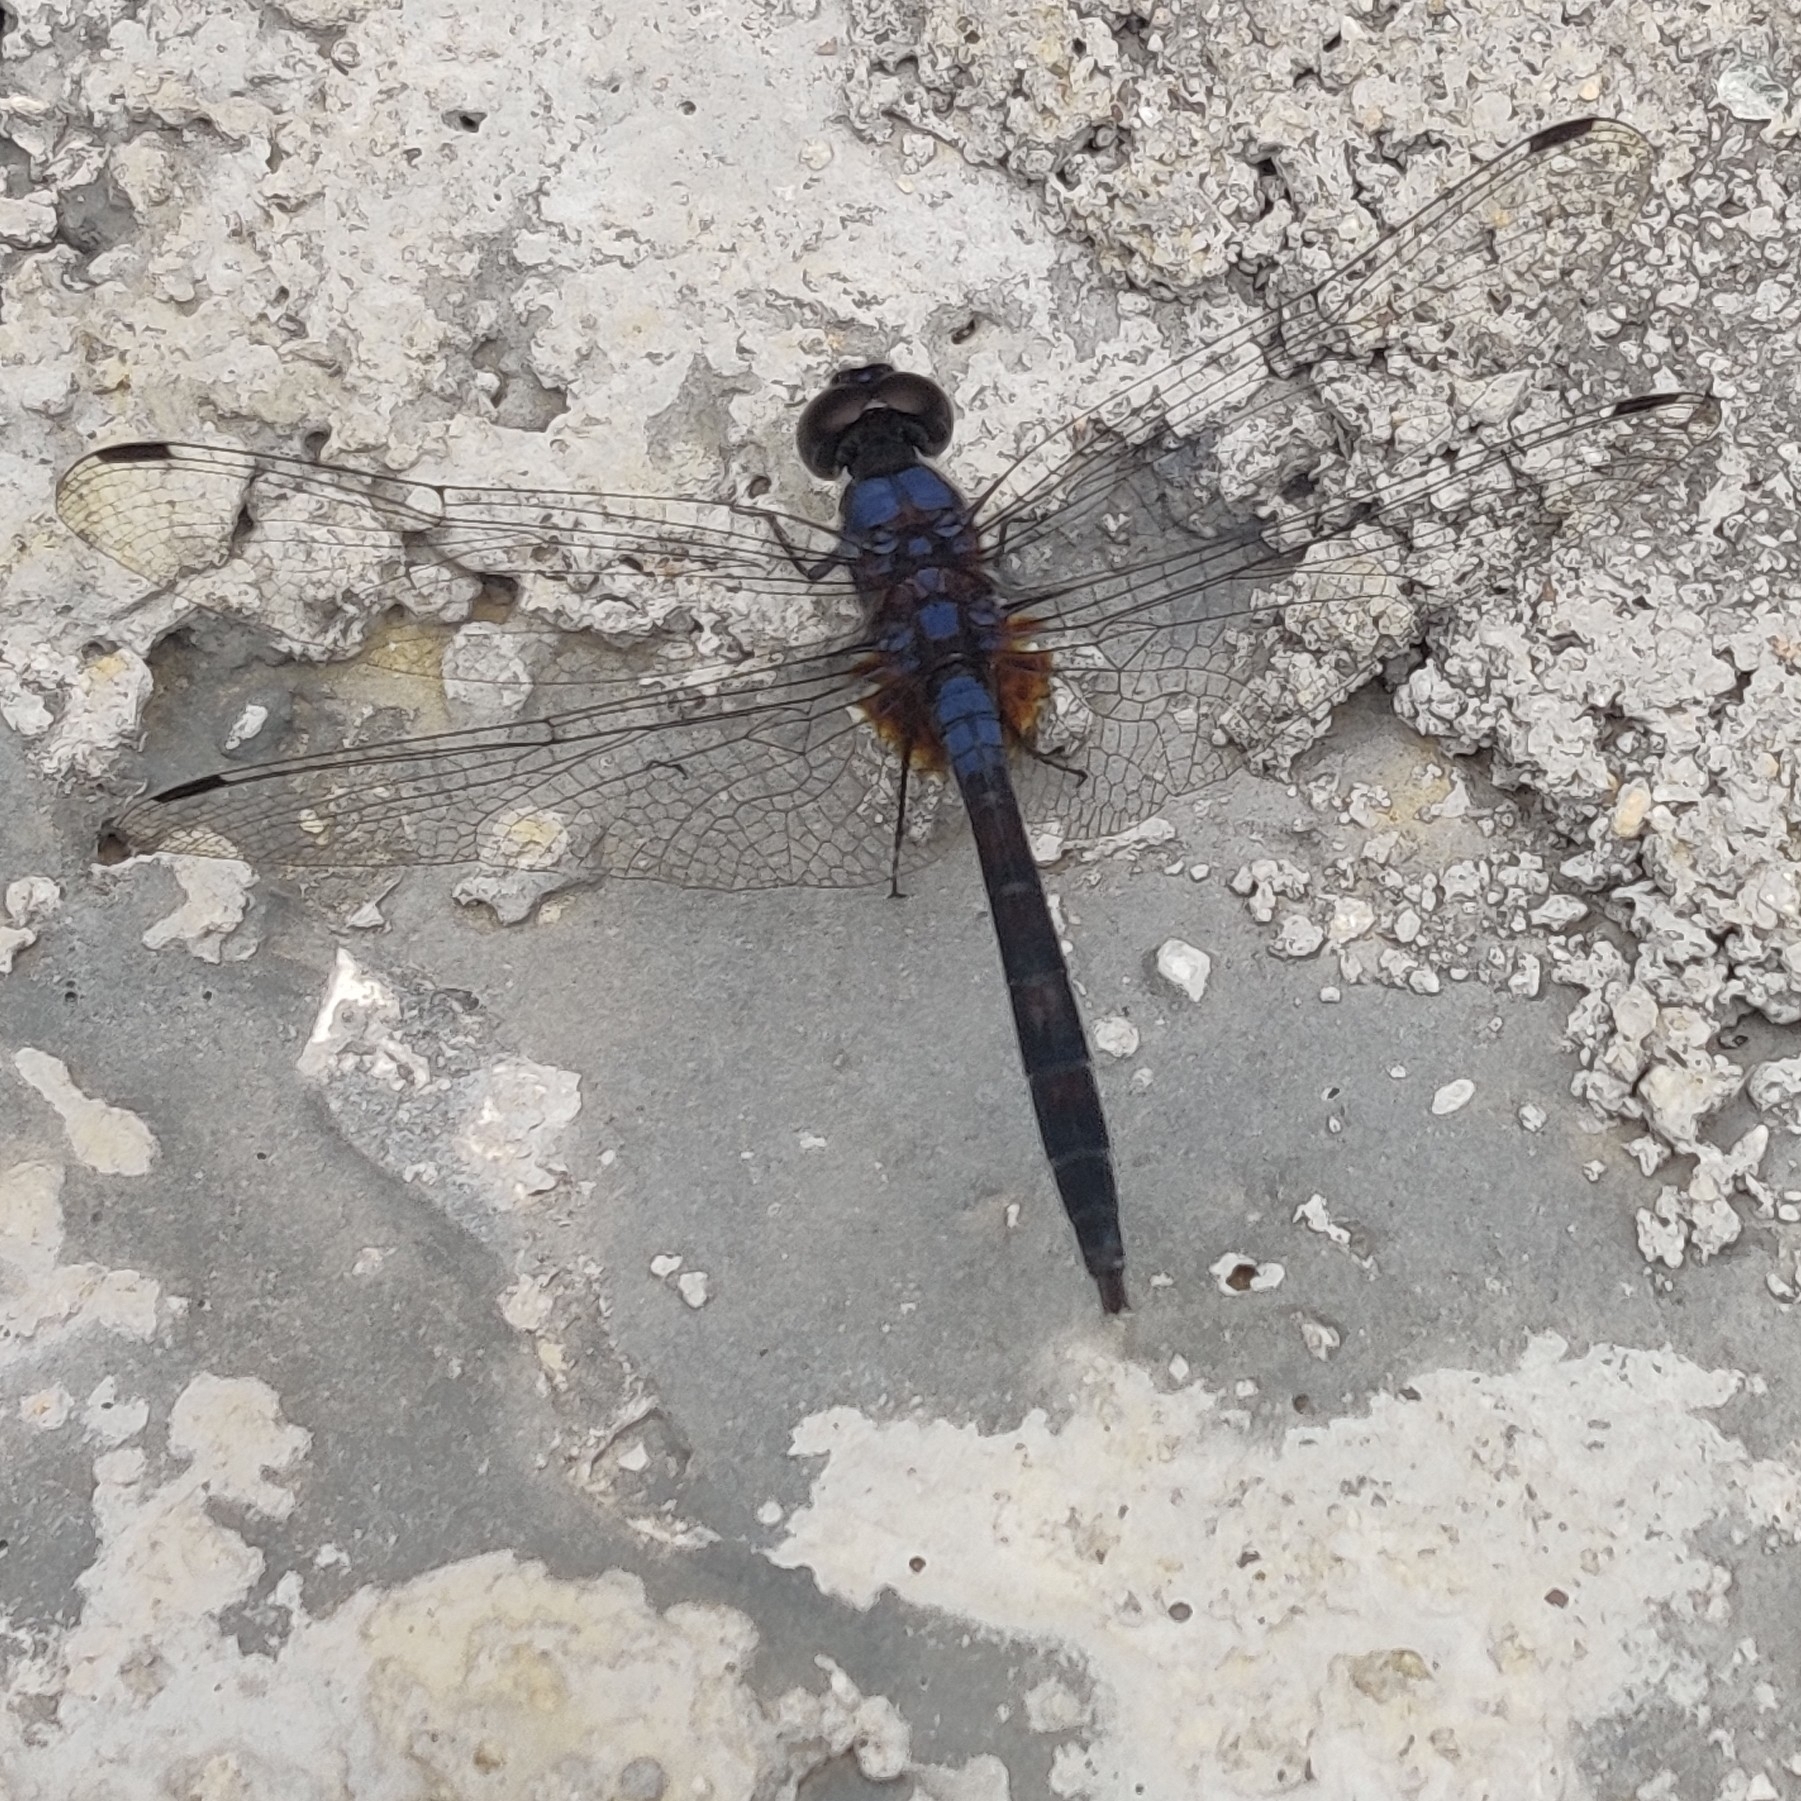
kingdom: Animalia
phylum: Arthropoda
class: Insecta
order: Odonata
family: Libellulidae
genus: Trithemis
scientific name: Trithemis festiva
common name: Indigo dropwing
